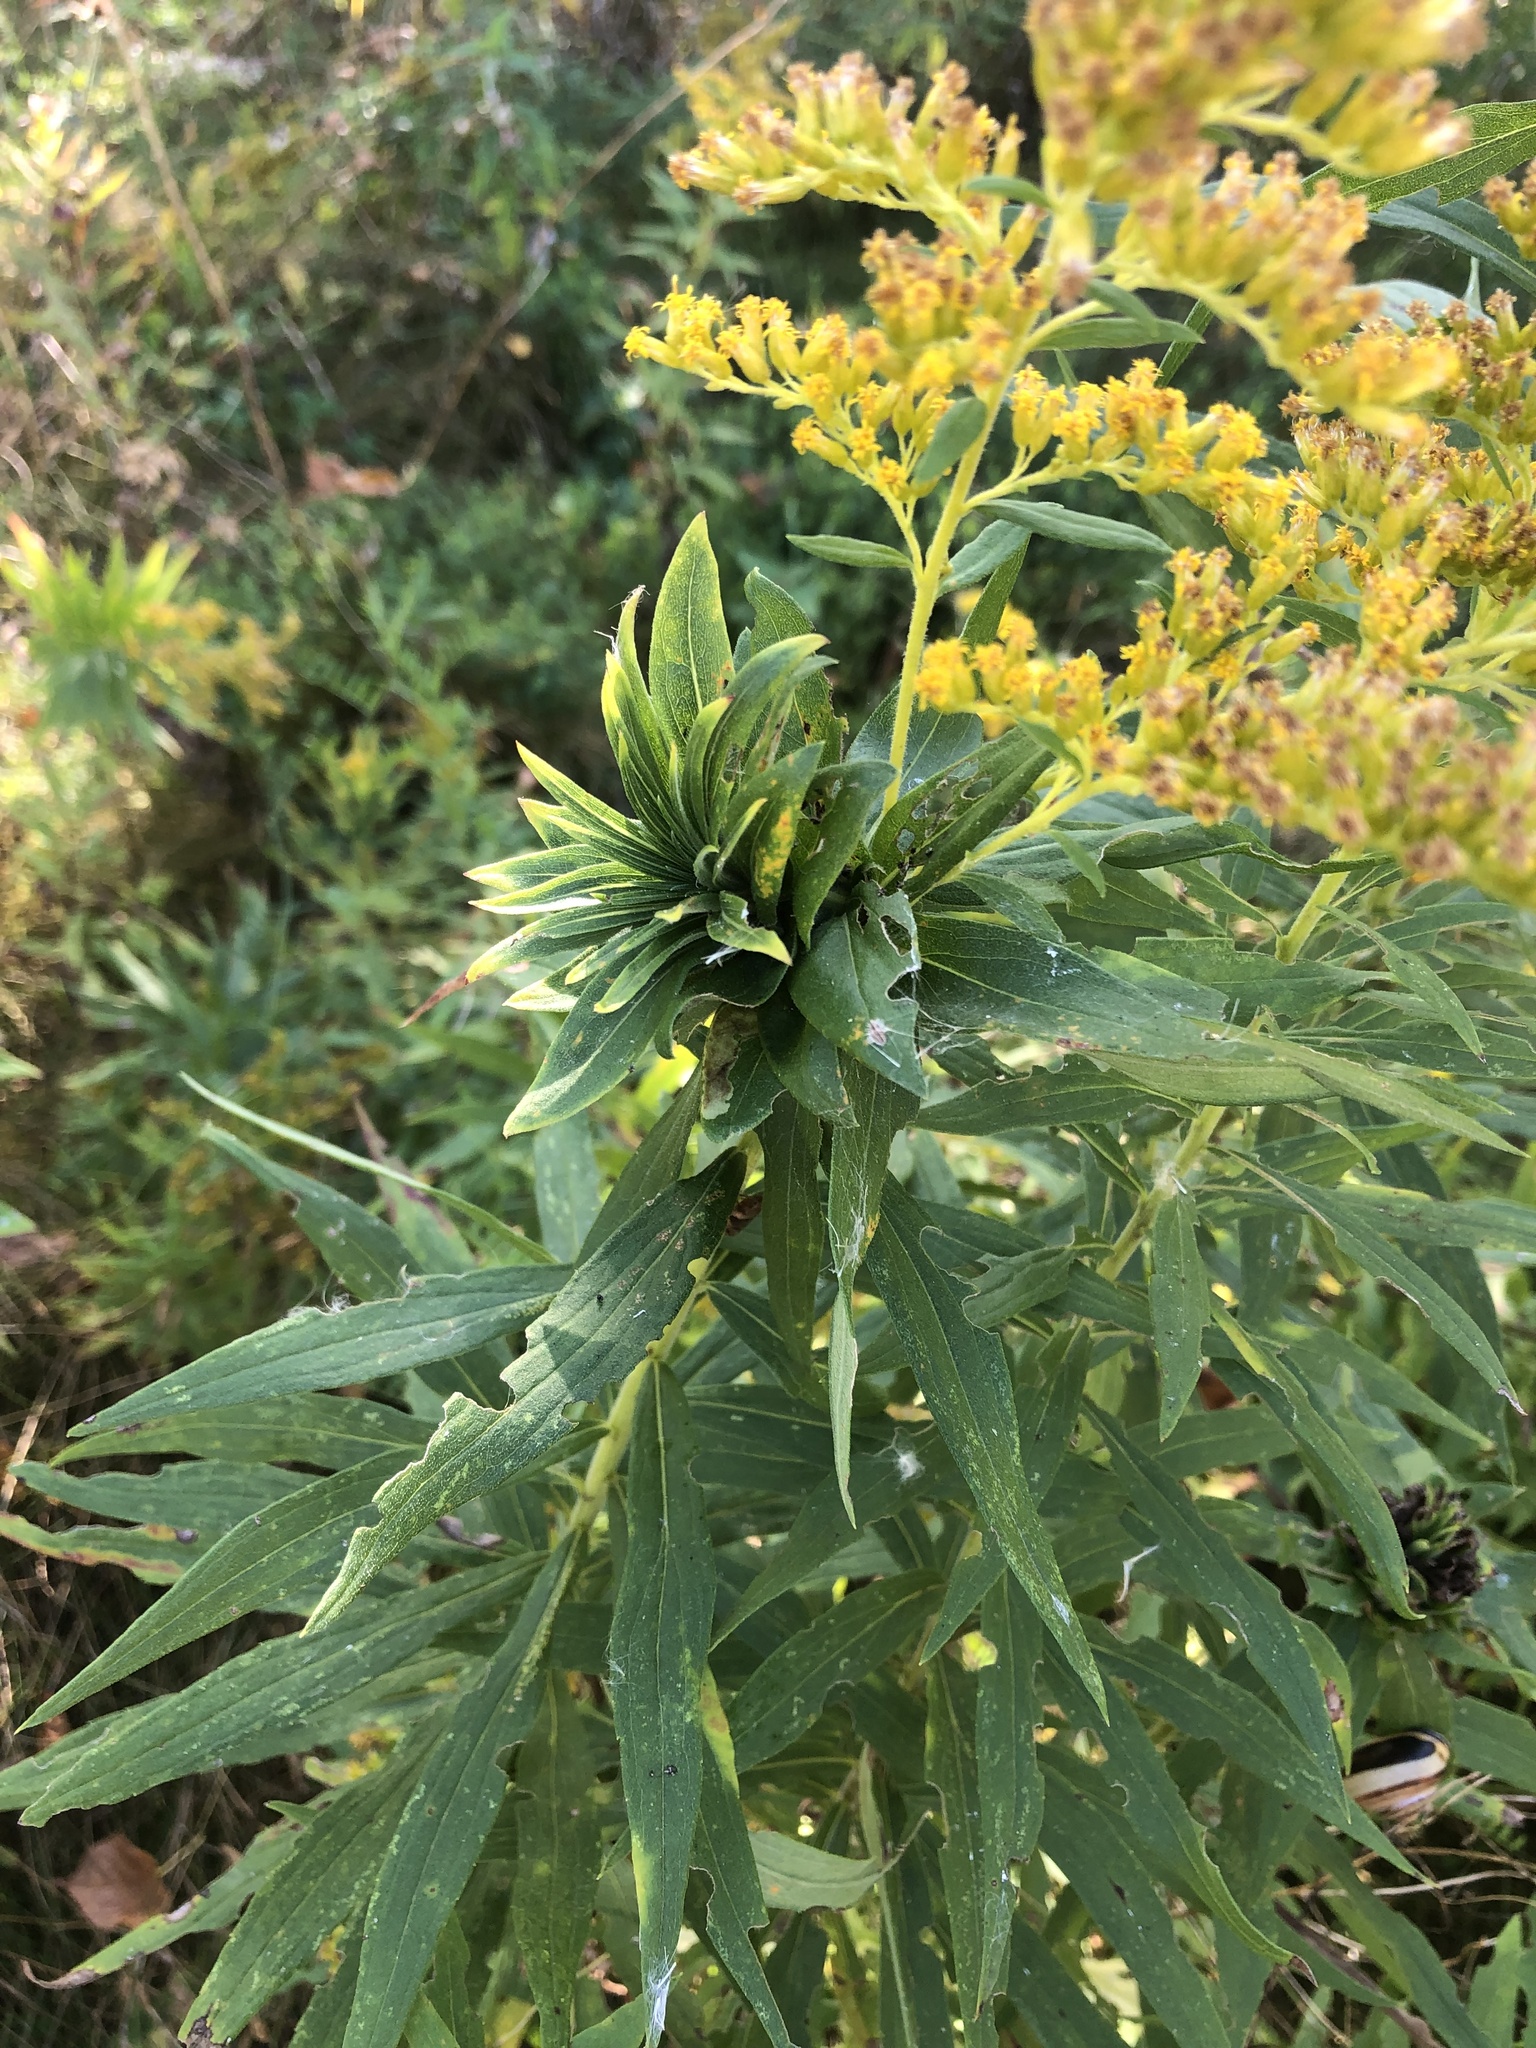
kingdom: Animalia
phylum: Arthropoda
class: Insecta
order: Diptera
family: Cecidomyiidae
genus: Rhopalomyia
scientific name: Rhopalomyia solidaginis
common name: Goldenrod bunch gall midge
